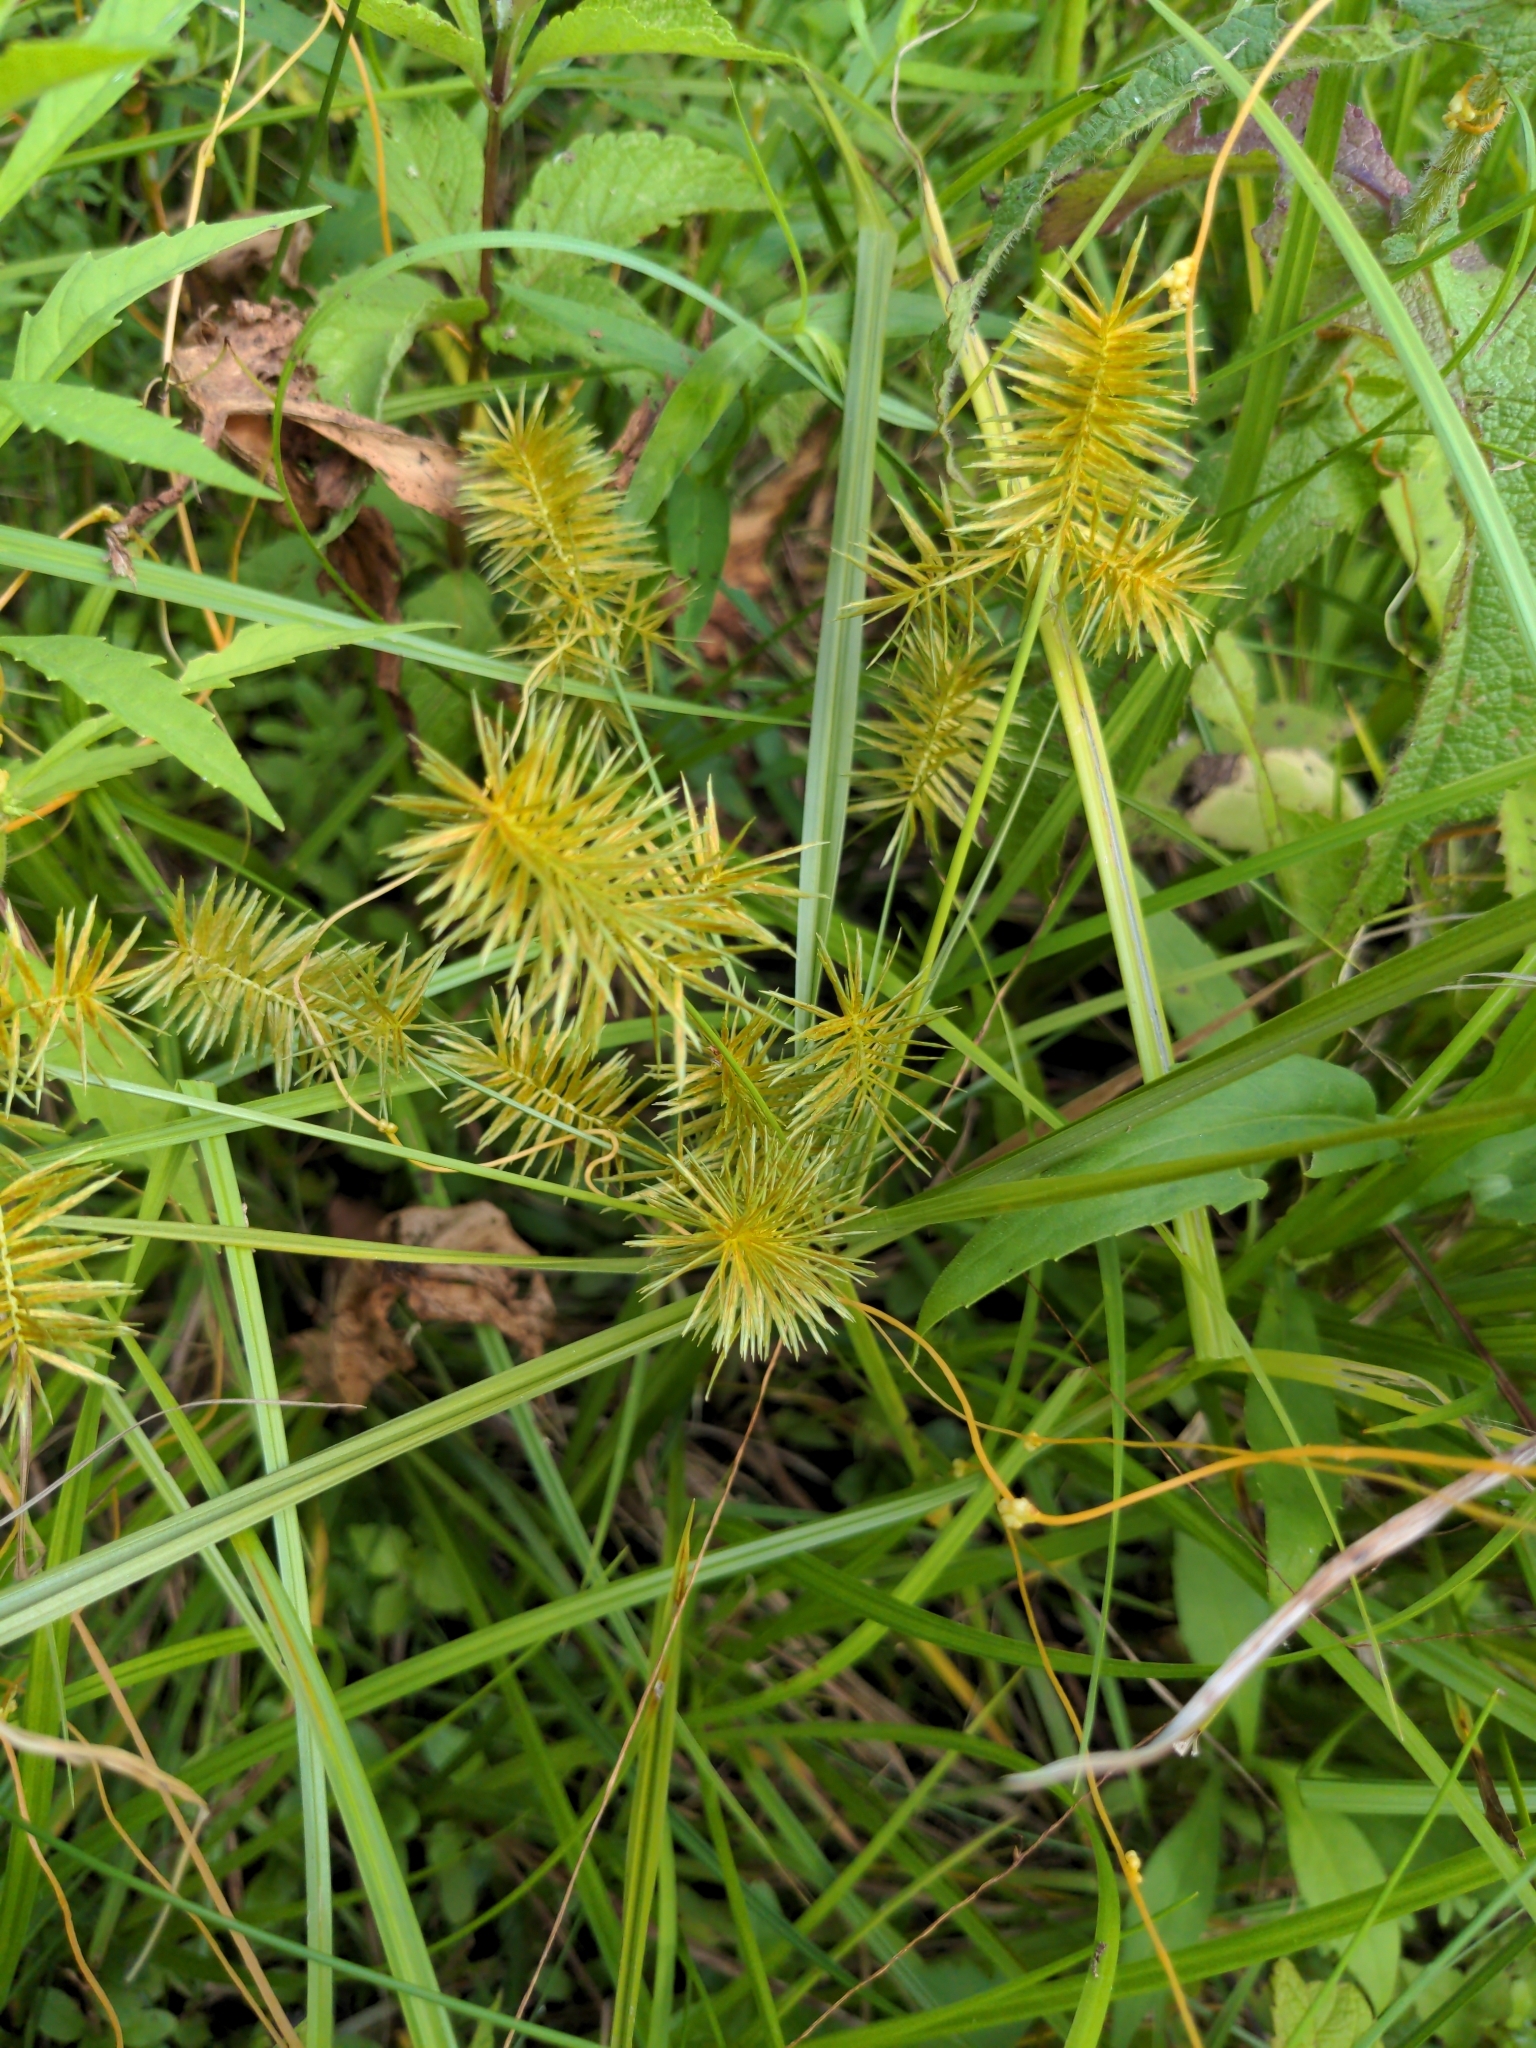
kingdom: Plantae
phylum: Tracheophyta
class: Liliopsida
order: Poales
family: Cyperaceae
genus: Cyperus
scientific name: Cyperus strigosus
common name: False nutsedge
